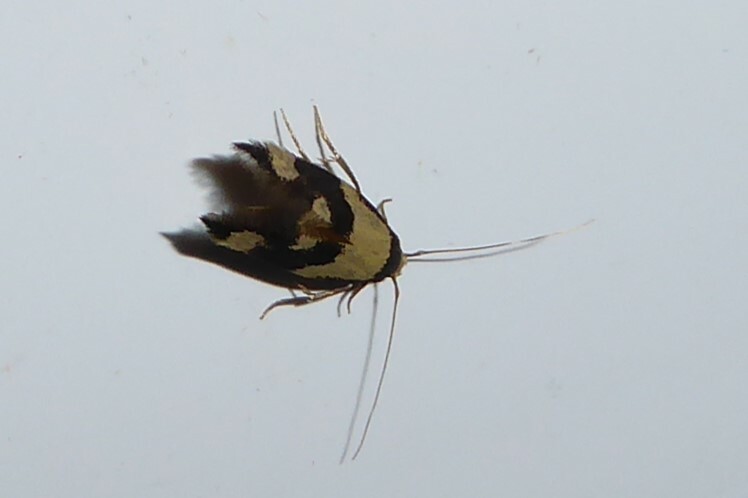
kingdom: Animalia
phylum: Arthropoda
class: Insecta
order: Lepidoptera
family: Tineidae
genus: Opogona
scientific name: Opogona comptella
